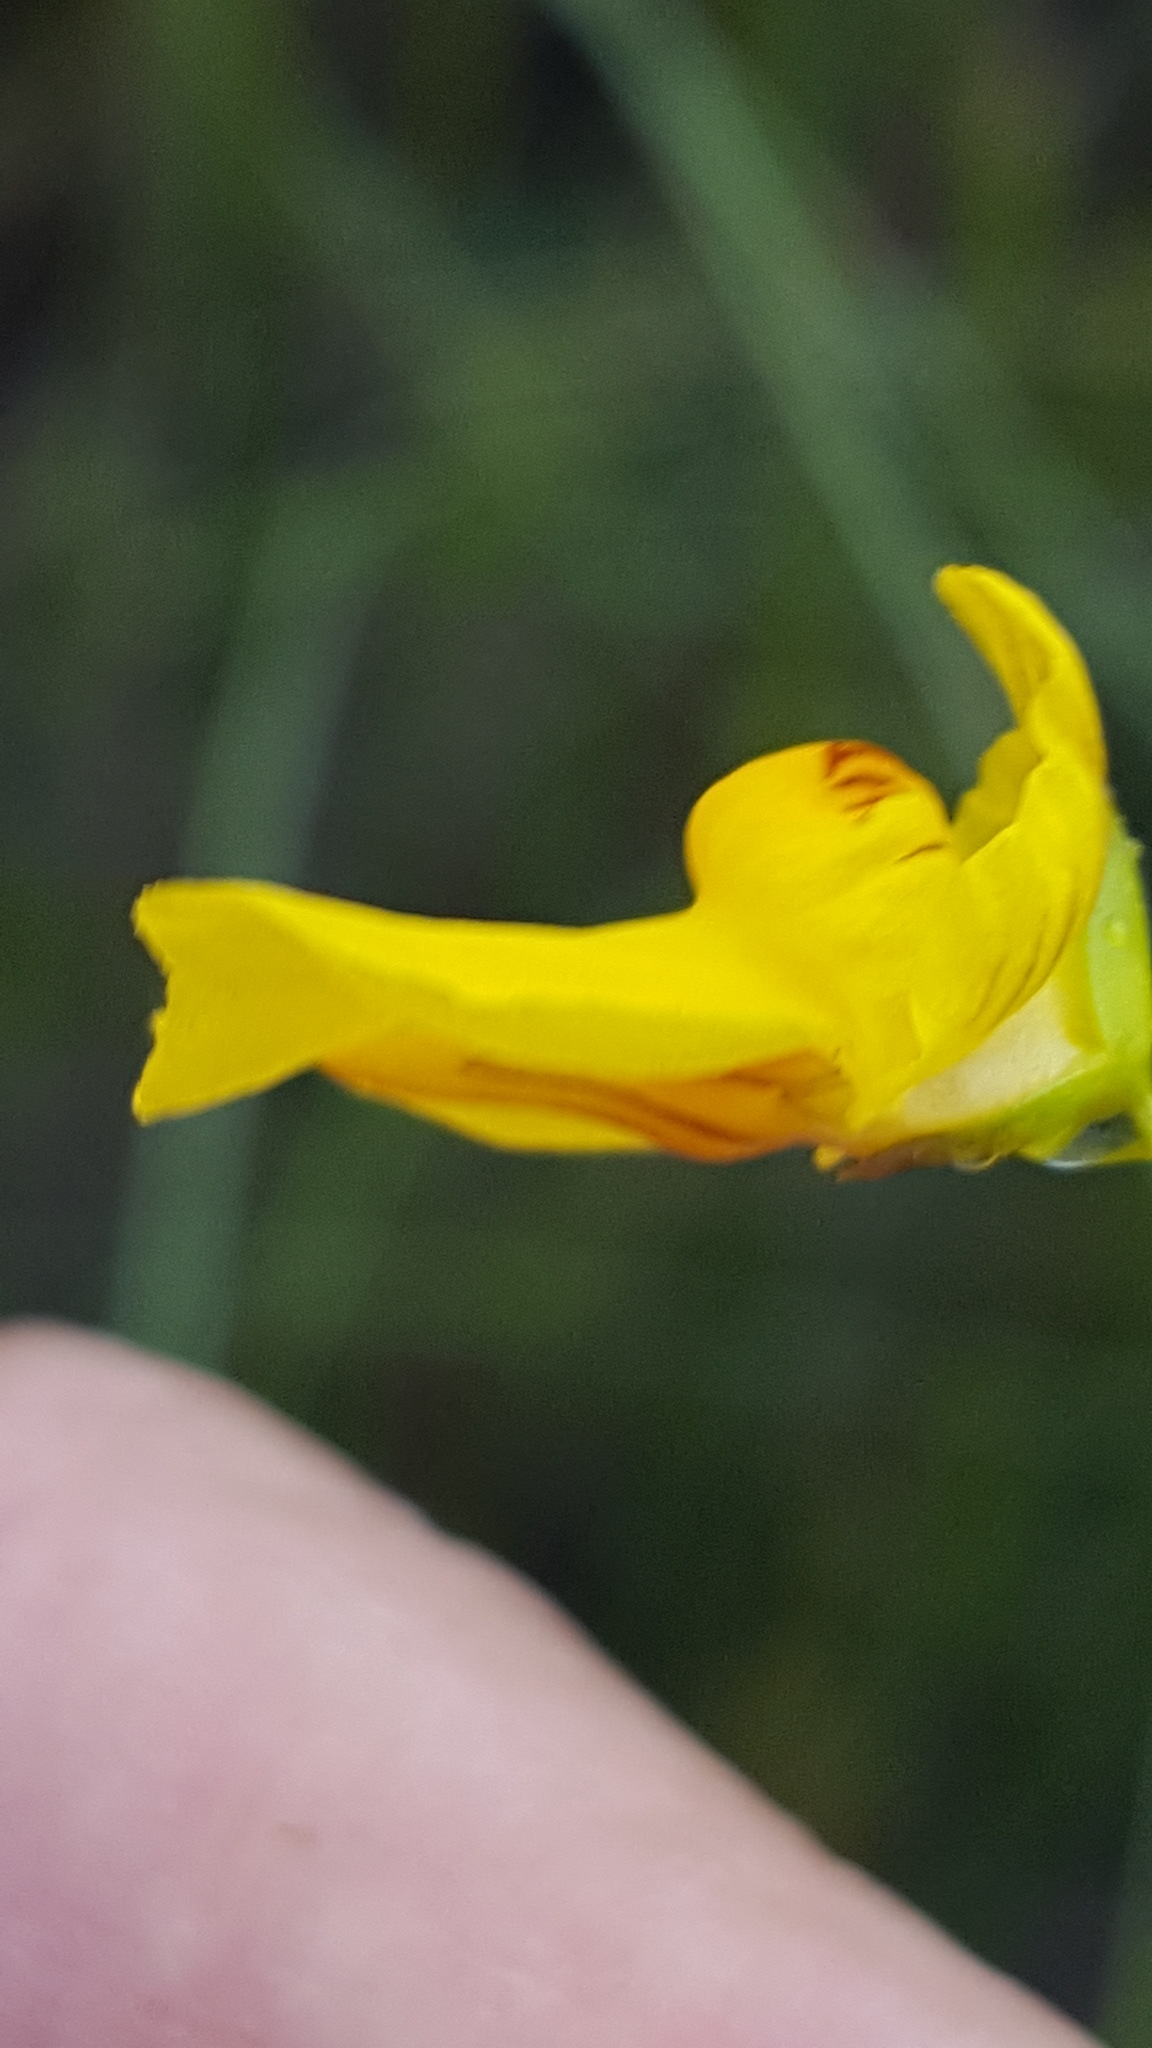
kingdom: Plantae
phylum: Tracheophyta
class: Magnoliopsida
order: Lamiales
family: Lentibulariaceae
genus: Utricularia
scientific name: Utricularia intermedia
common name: Intermediate bladderwort
